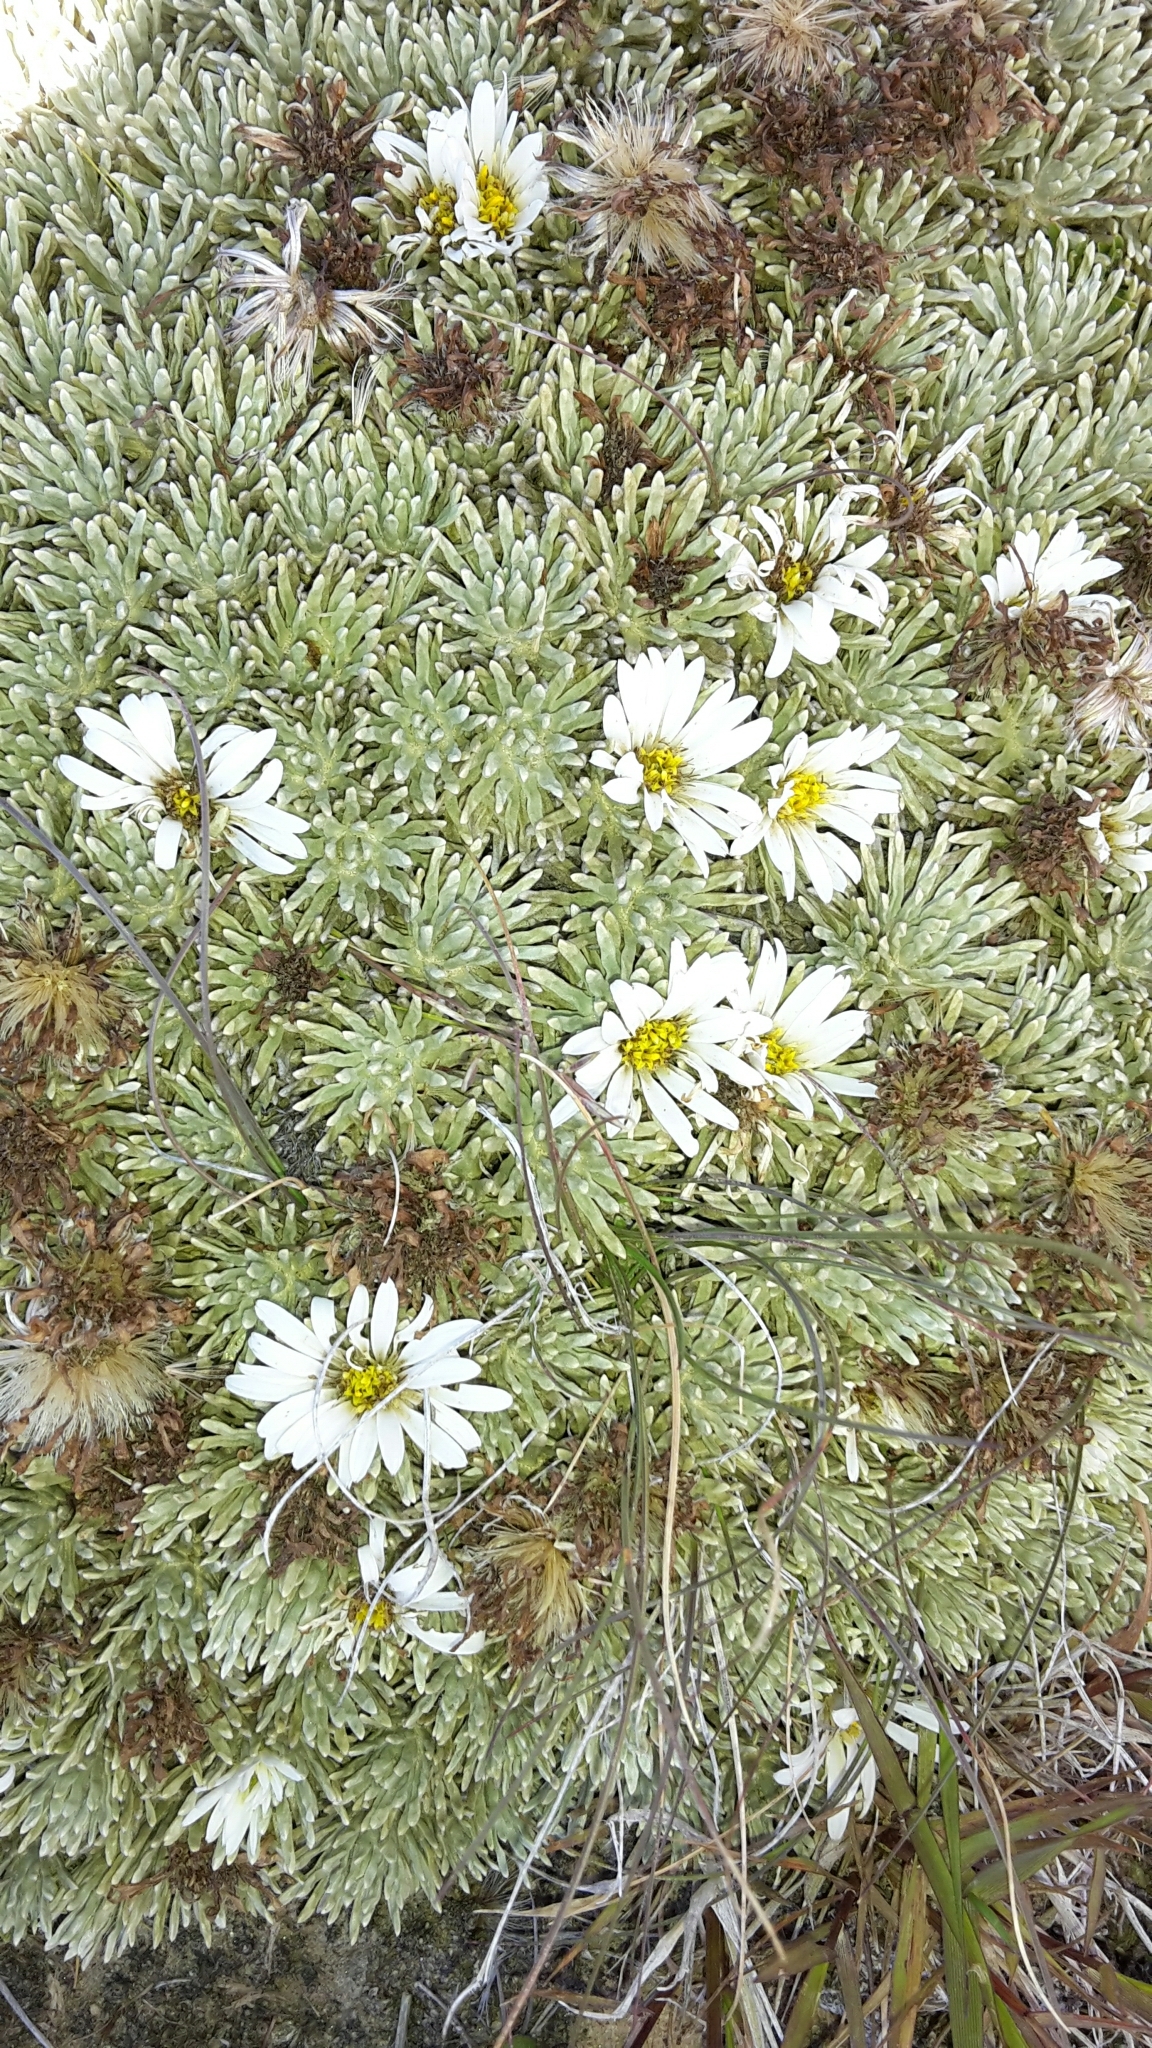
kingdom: Plantae
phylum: Tracheophyta
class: Magnoliopsida
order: Asterales
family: Asteraceae
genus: Celmisia
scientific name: Celmisia sessiliflora
